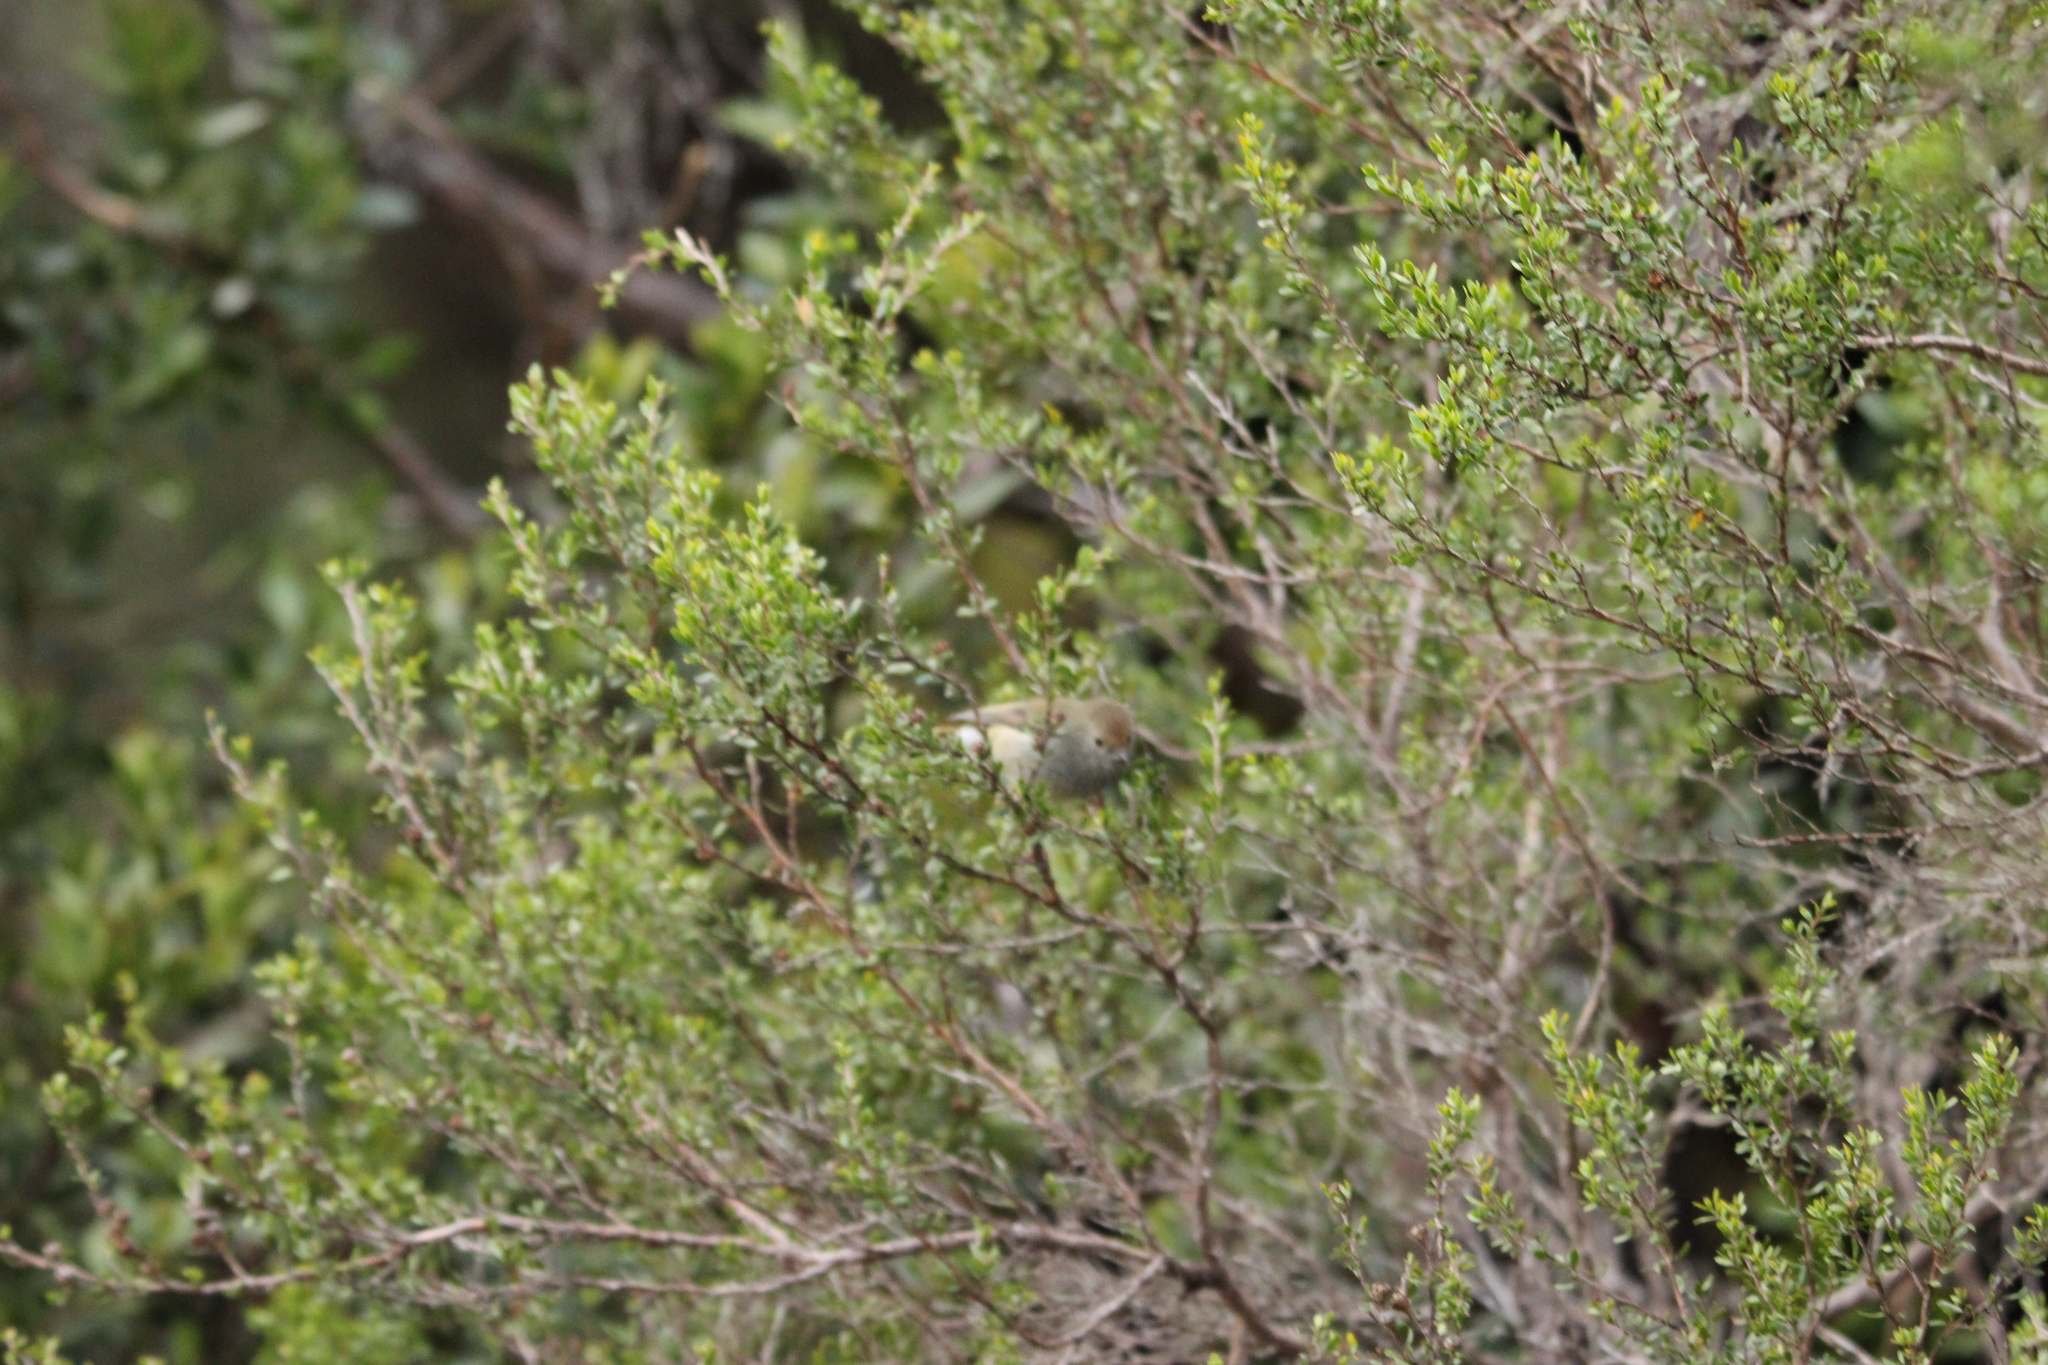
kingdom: Animalia
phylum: Chordata
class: Aves
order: Passeriformes
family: Acanthizidae
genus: Acanthiza
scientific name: Acanthiza ewingii
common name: Tasmanian thornbill
